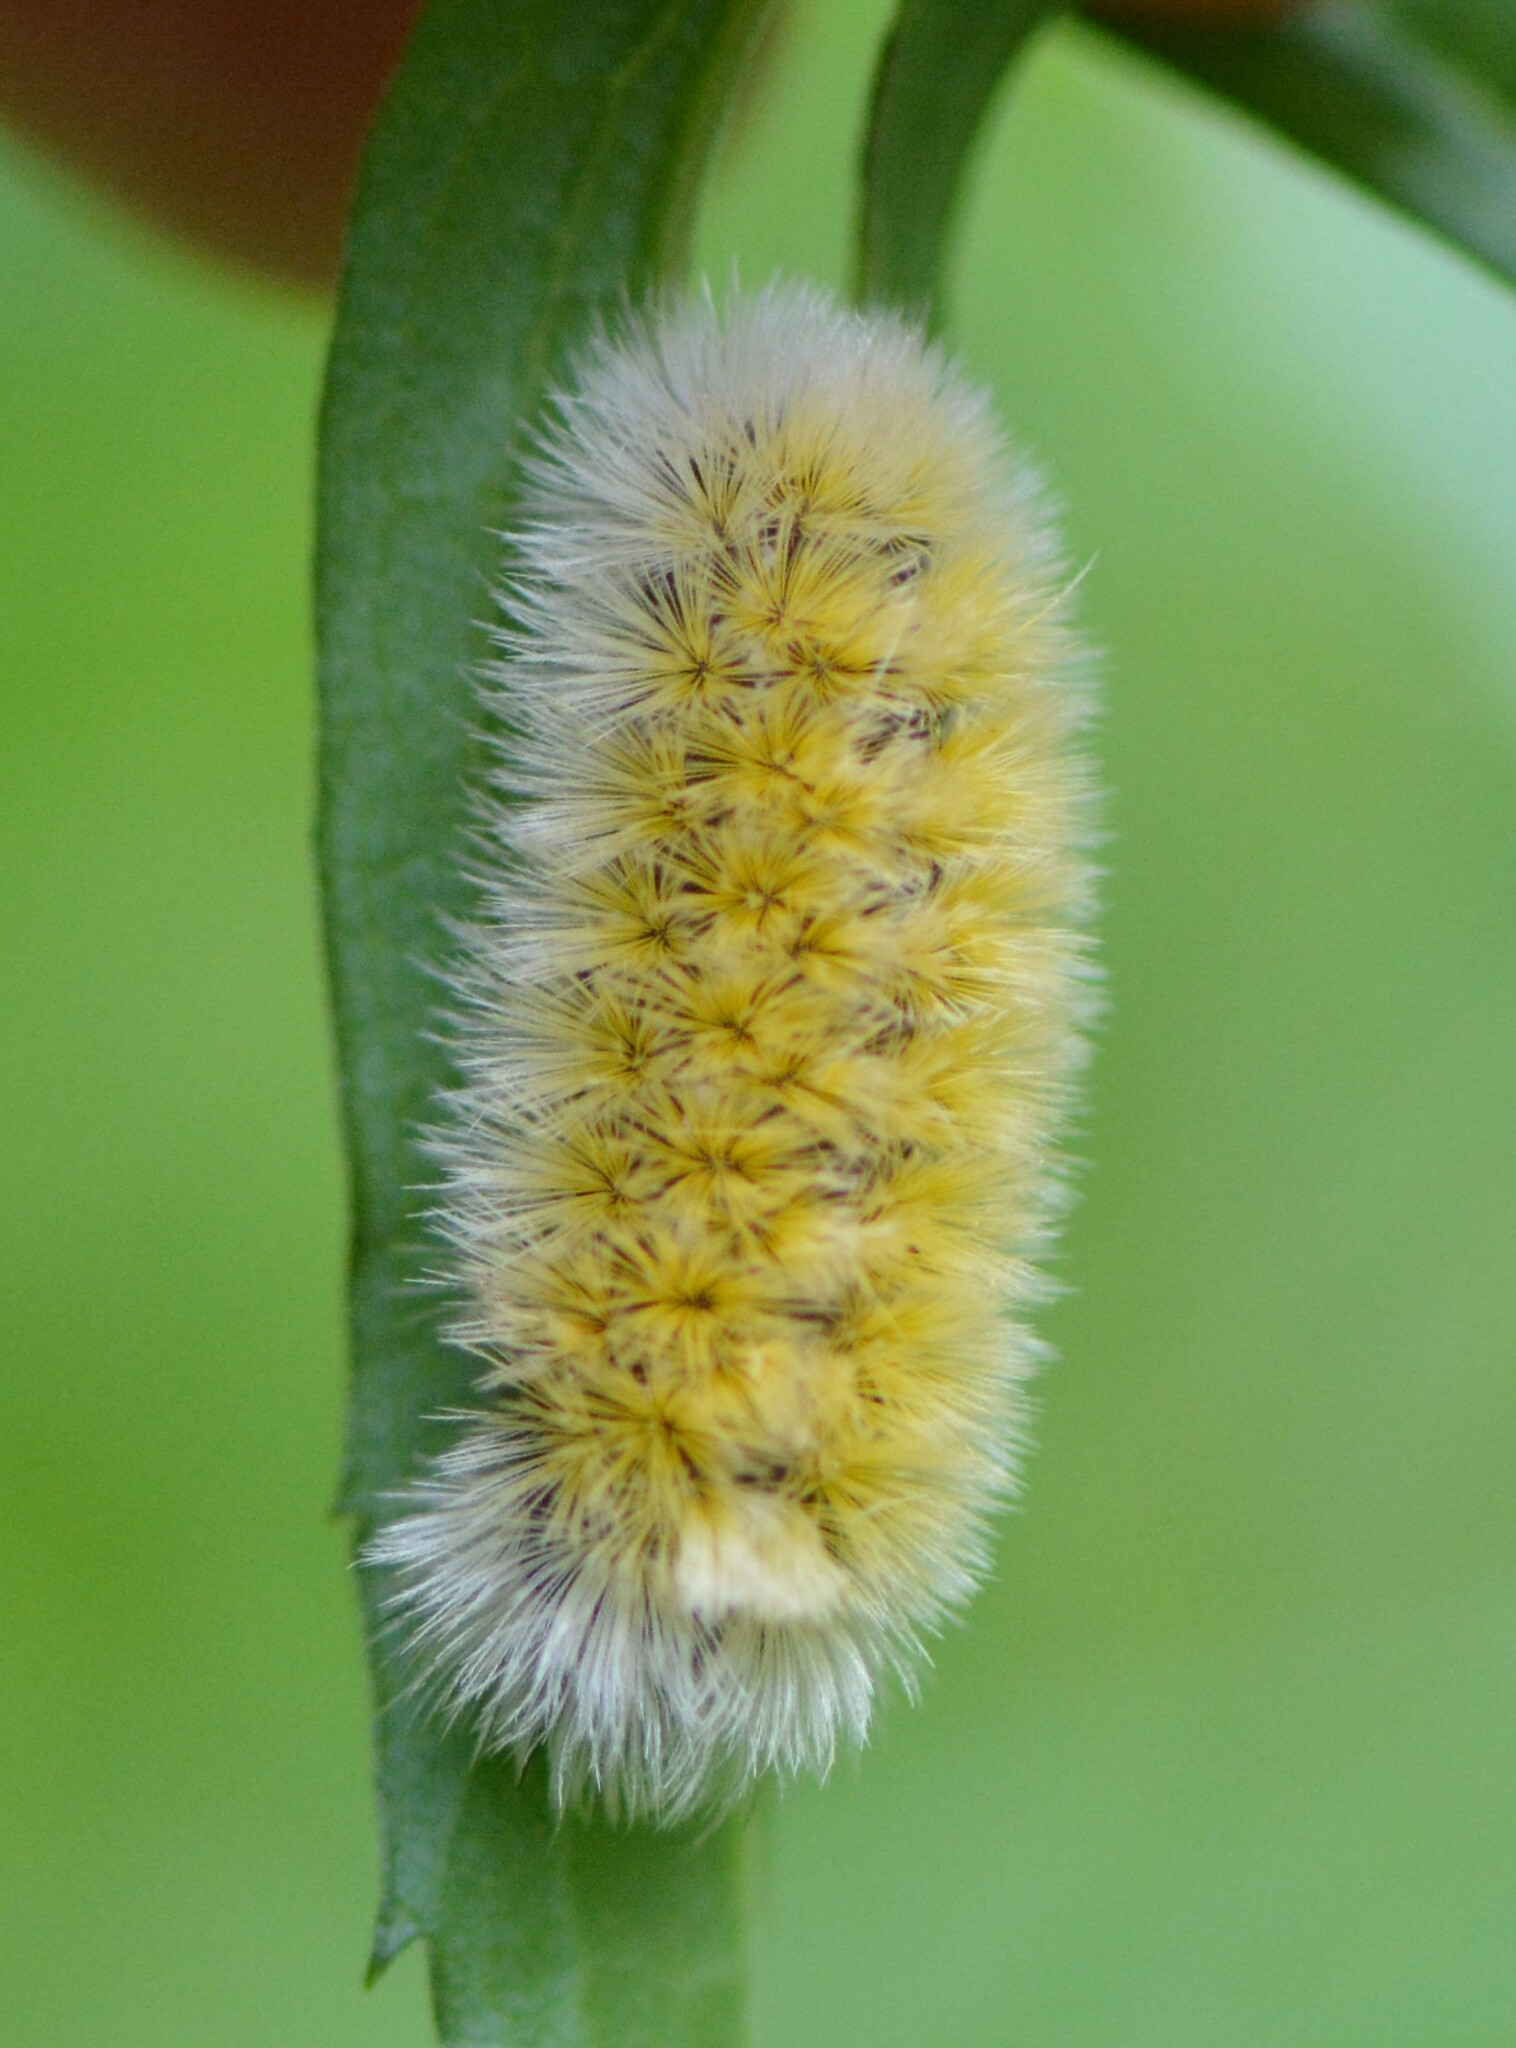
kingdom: Animalia
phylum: Arthropoda
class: Insecta
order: Lepidoptera
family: Erebidae
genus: Ctenucha
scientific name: Ctenucha virginica
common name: Virginia ctenucha moth
